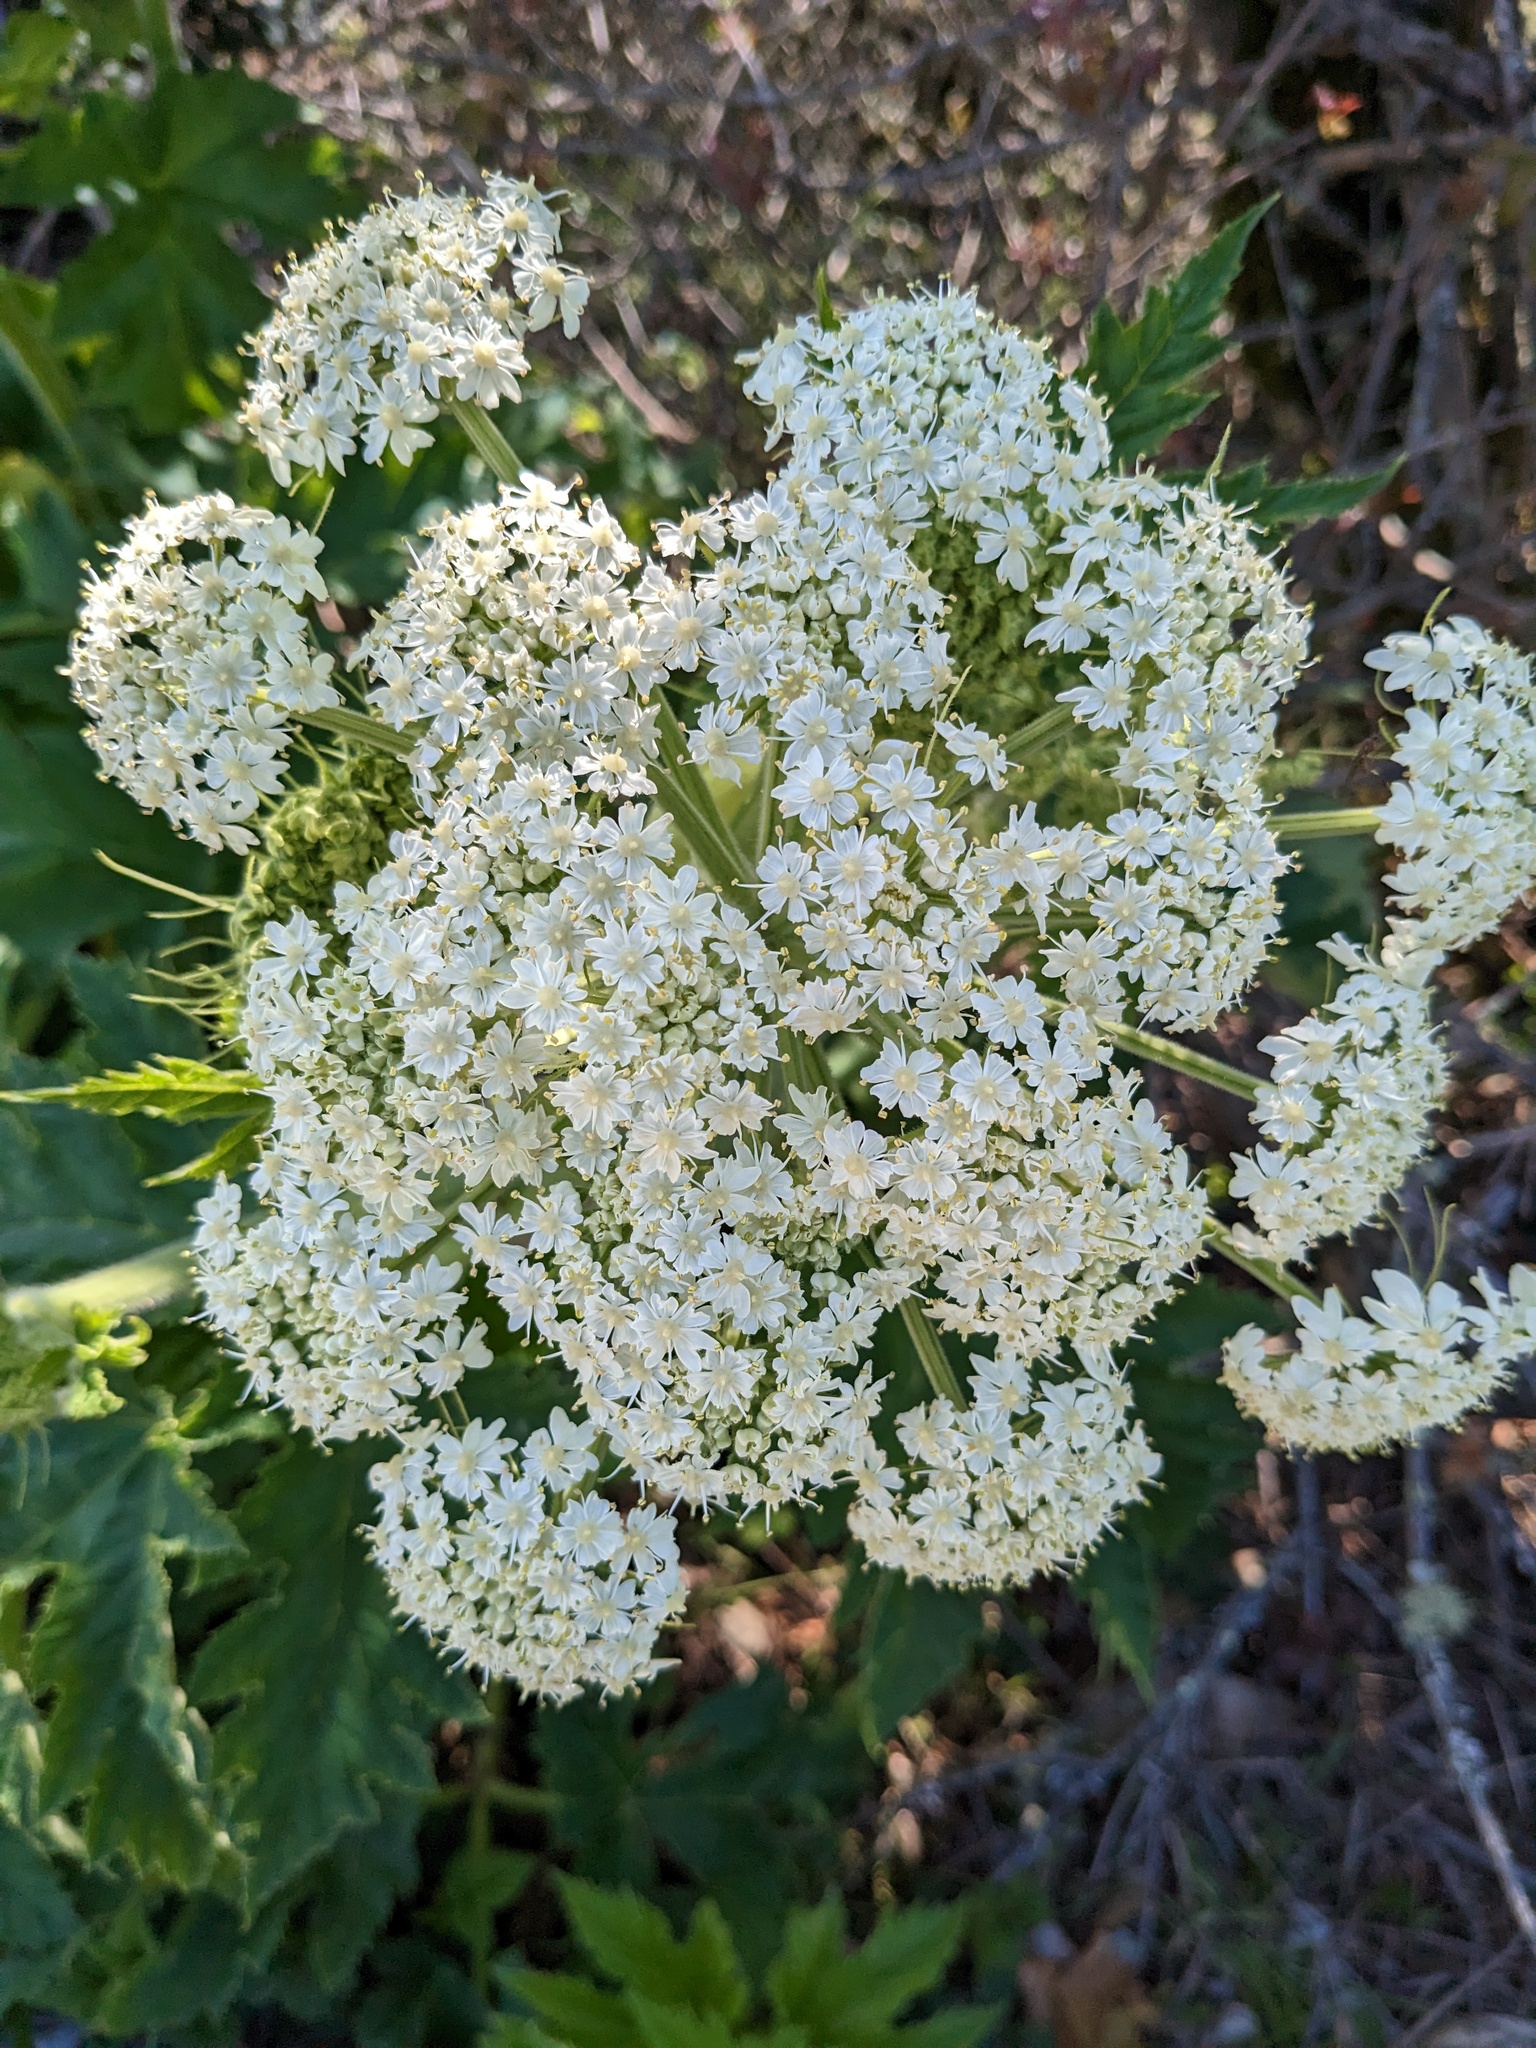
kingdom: Plantae
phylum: Tracheophyta
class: Magnoliopsida
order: Apiales
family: Apiaceae
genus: Heracleum
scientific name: Heracleum maximum
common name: American cow parsnip
